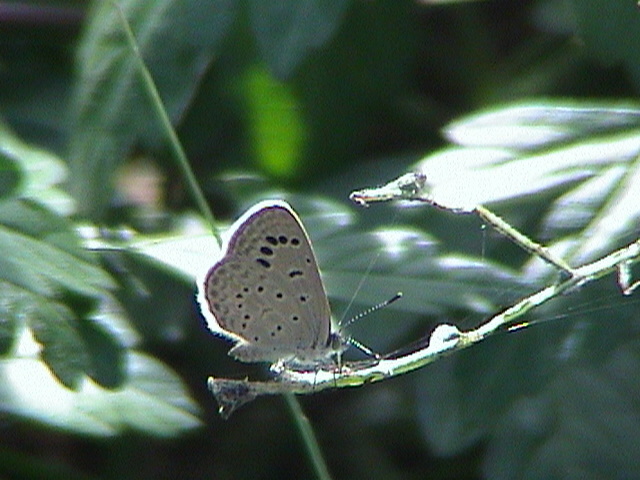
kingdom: Animalia
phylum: Arthropoda
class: Insecta
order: Lepidoptera
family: Lycaenidae
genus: Zizeeria
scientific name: Zizeeria karsandra
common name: Dark grass blue
